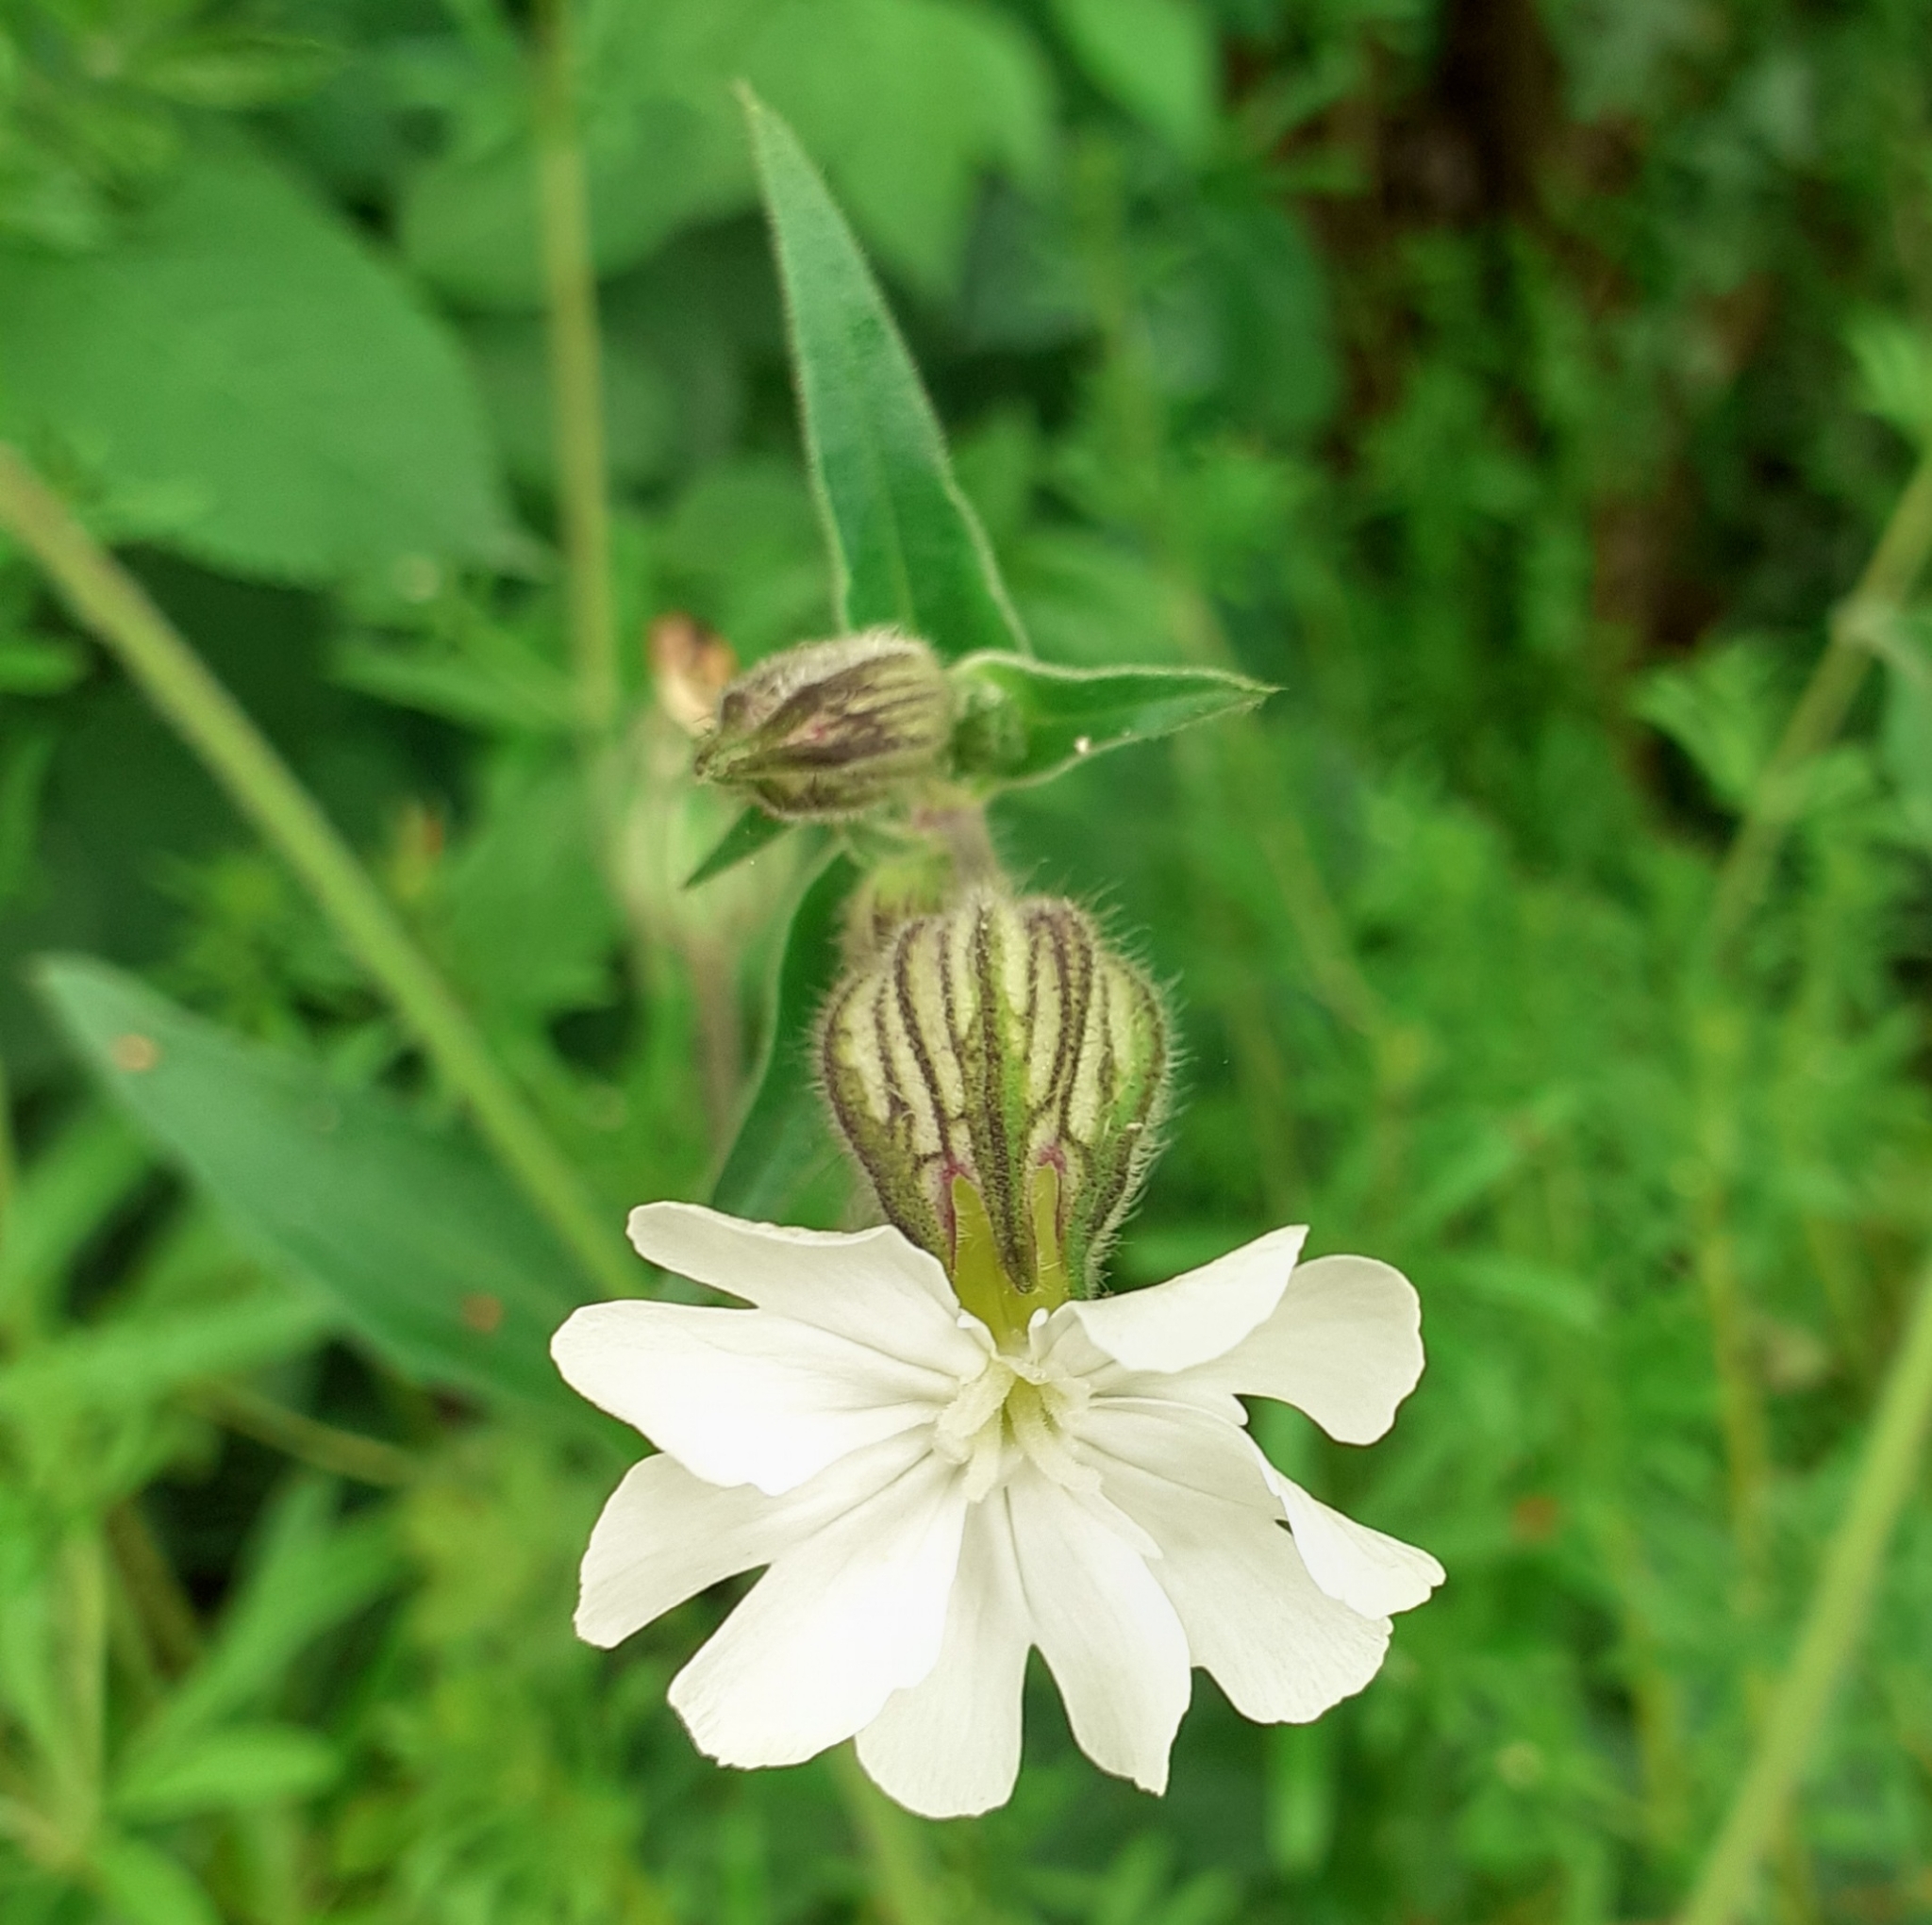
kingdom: Plantae
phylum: Tracheophyta
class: Magnoliopsida
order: Caryophyllales
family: Caryophyllaceae
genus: Silene
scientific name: Silene latifolia
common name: White campion
